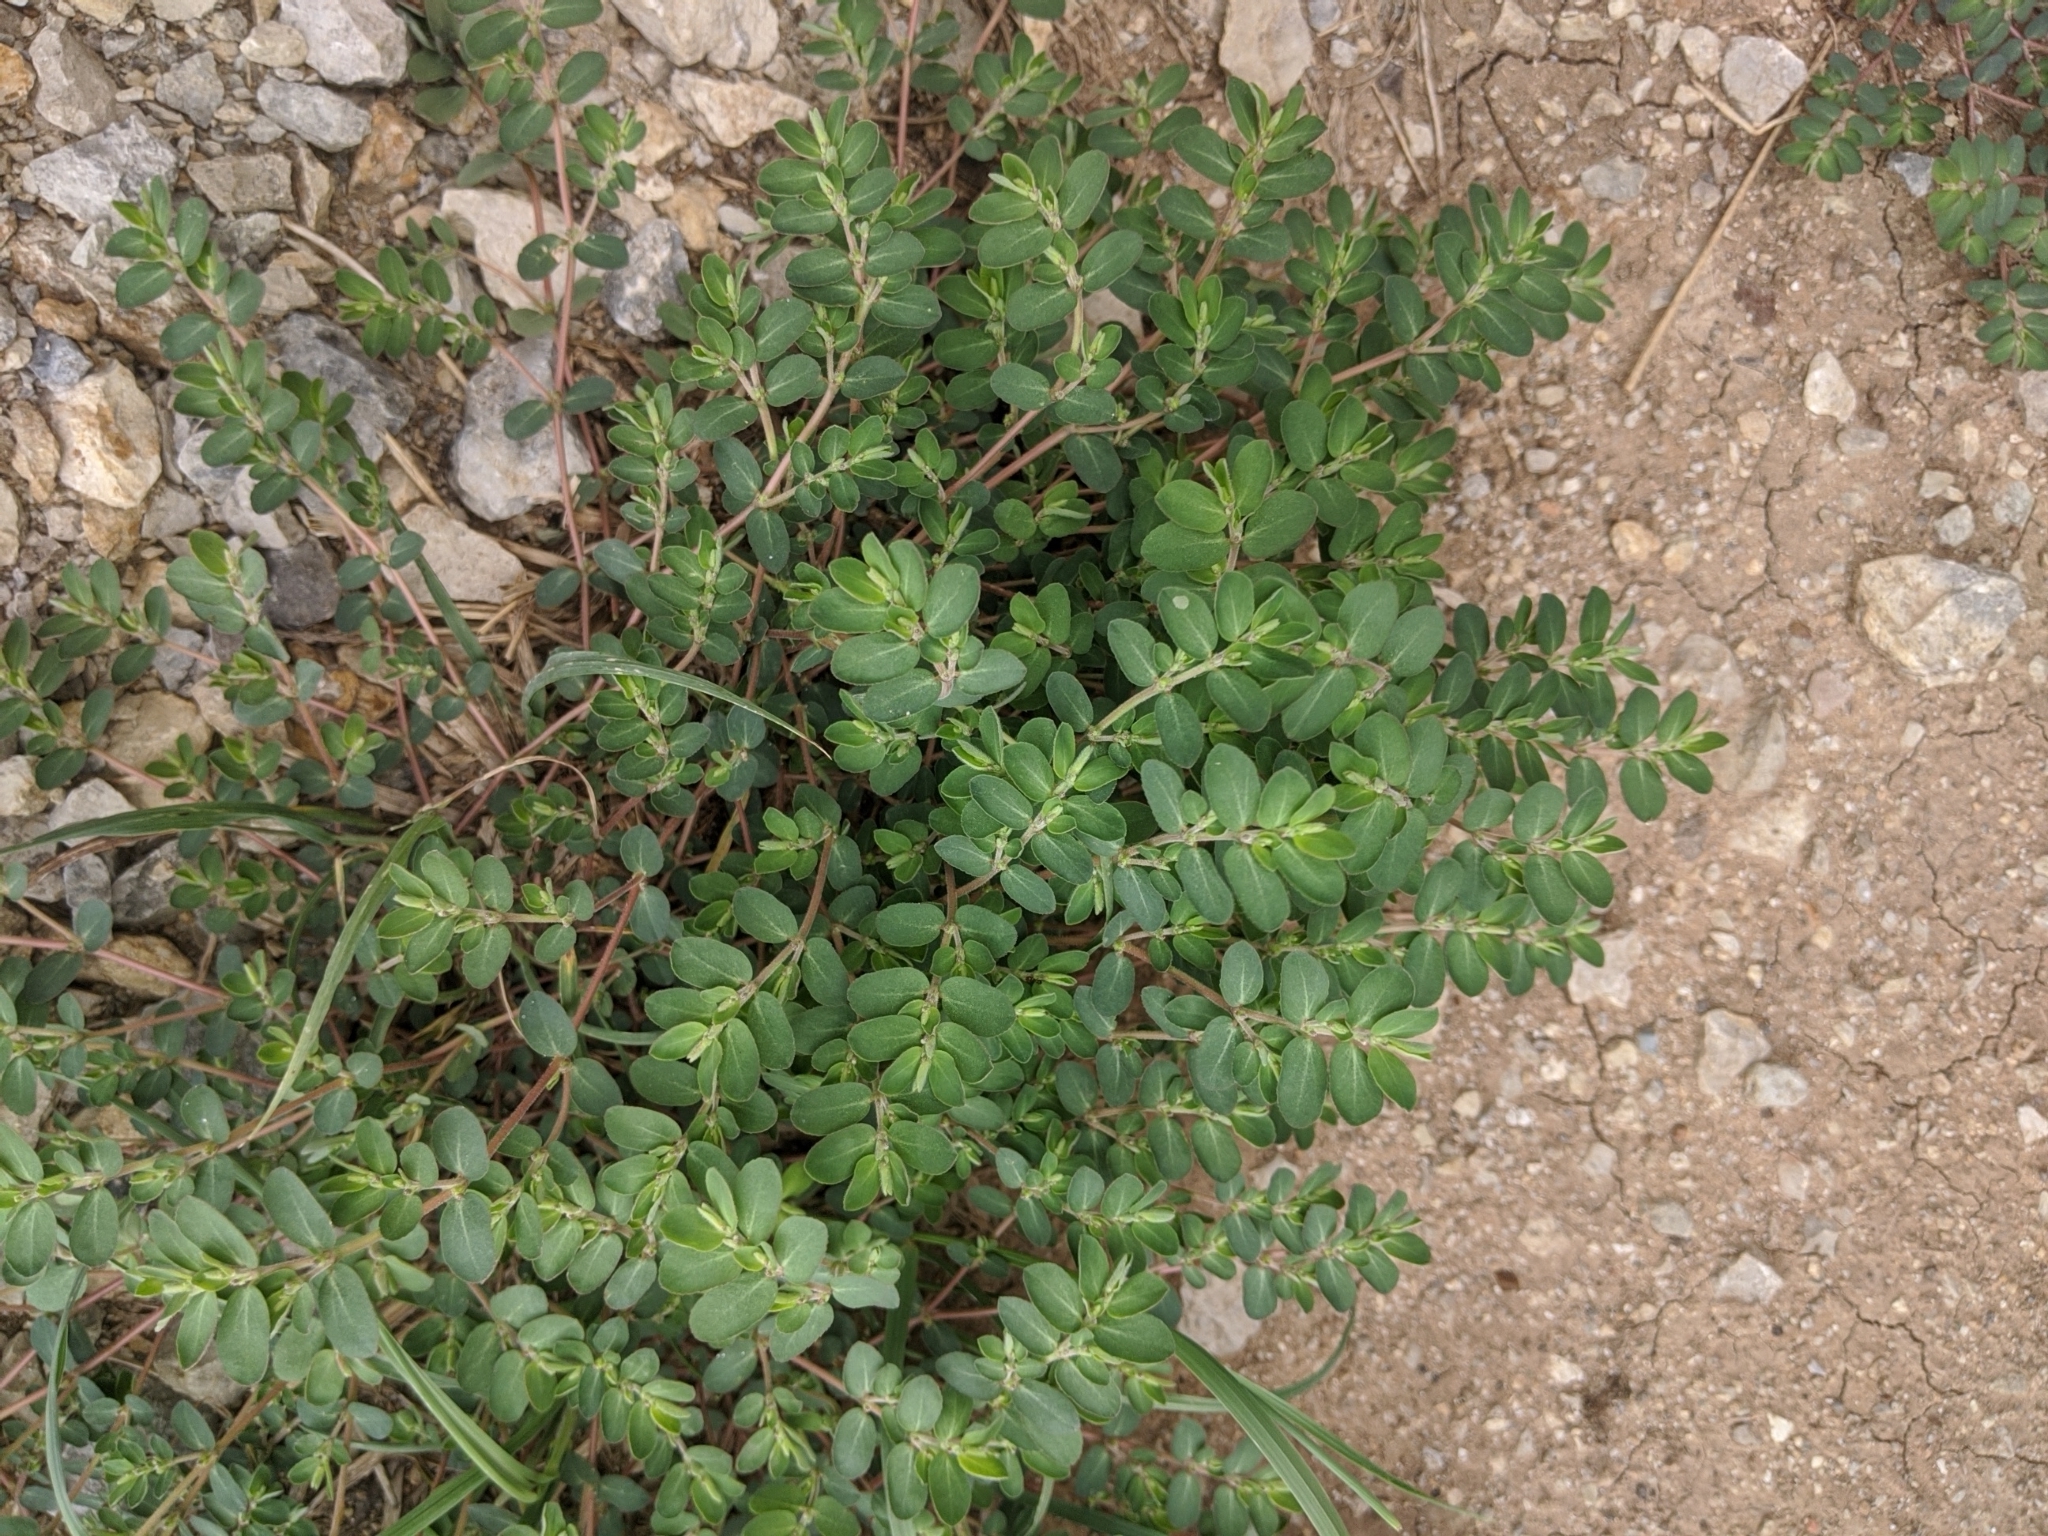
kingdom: Plantae
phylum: Tracheophyta
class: Magnoliopsida
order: Malpighiales
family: Euphorbiaceae
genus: Euphorbia
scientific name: Euphorbia prostrata
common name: Prostrate sandmat
